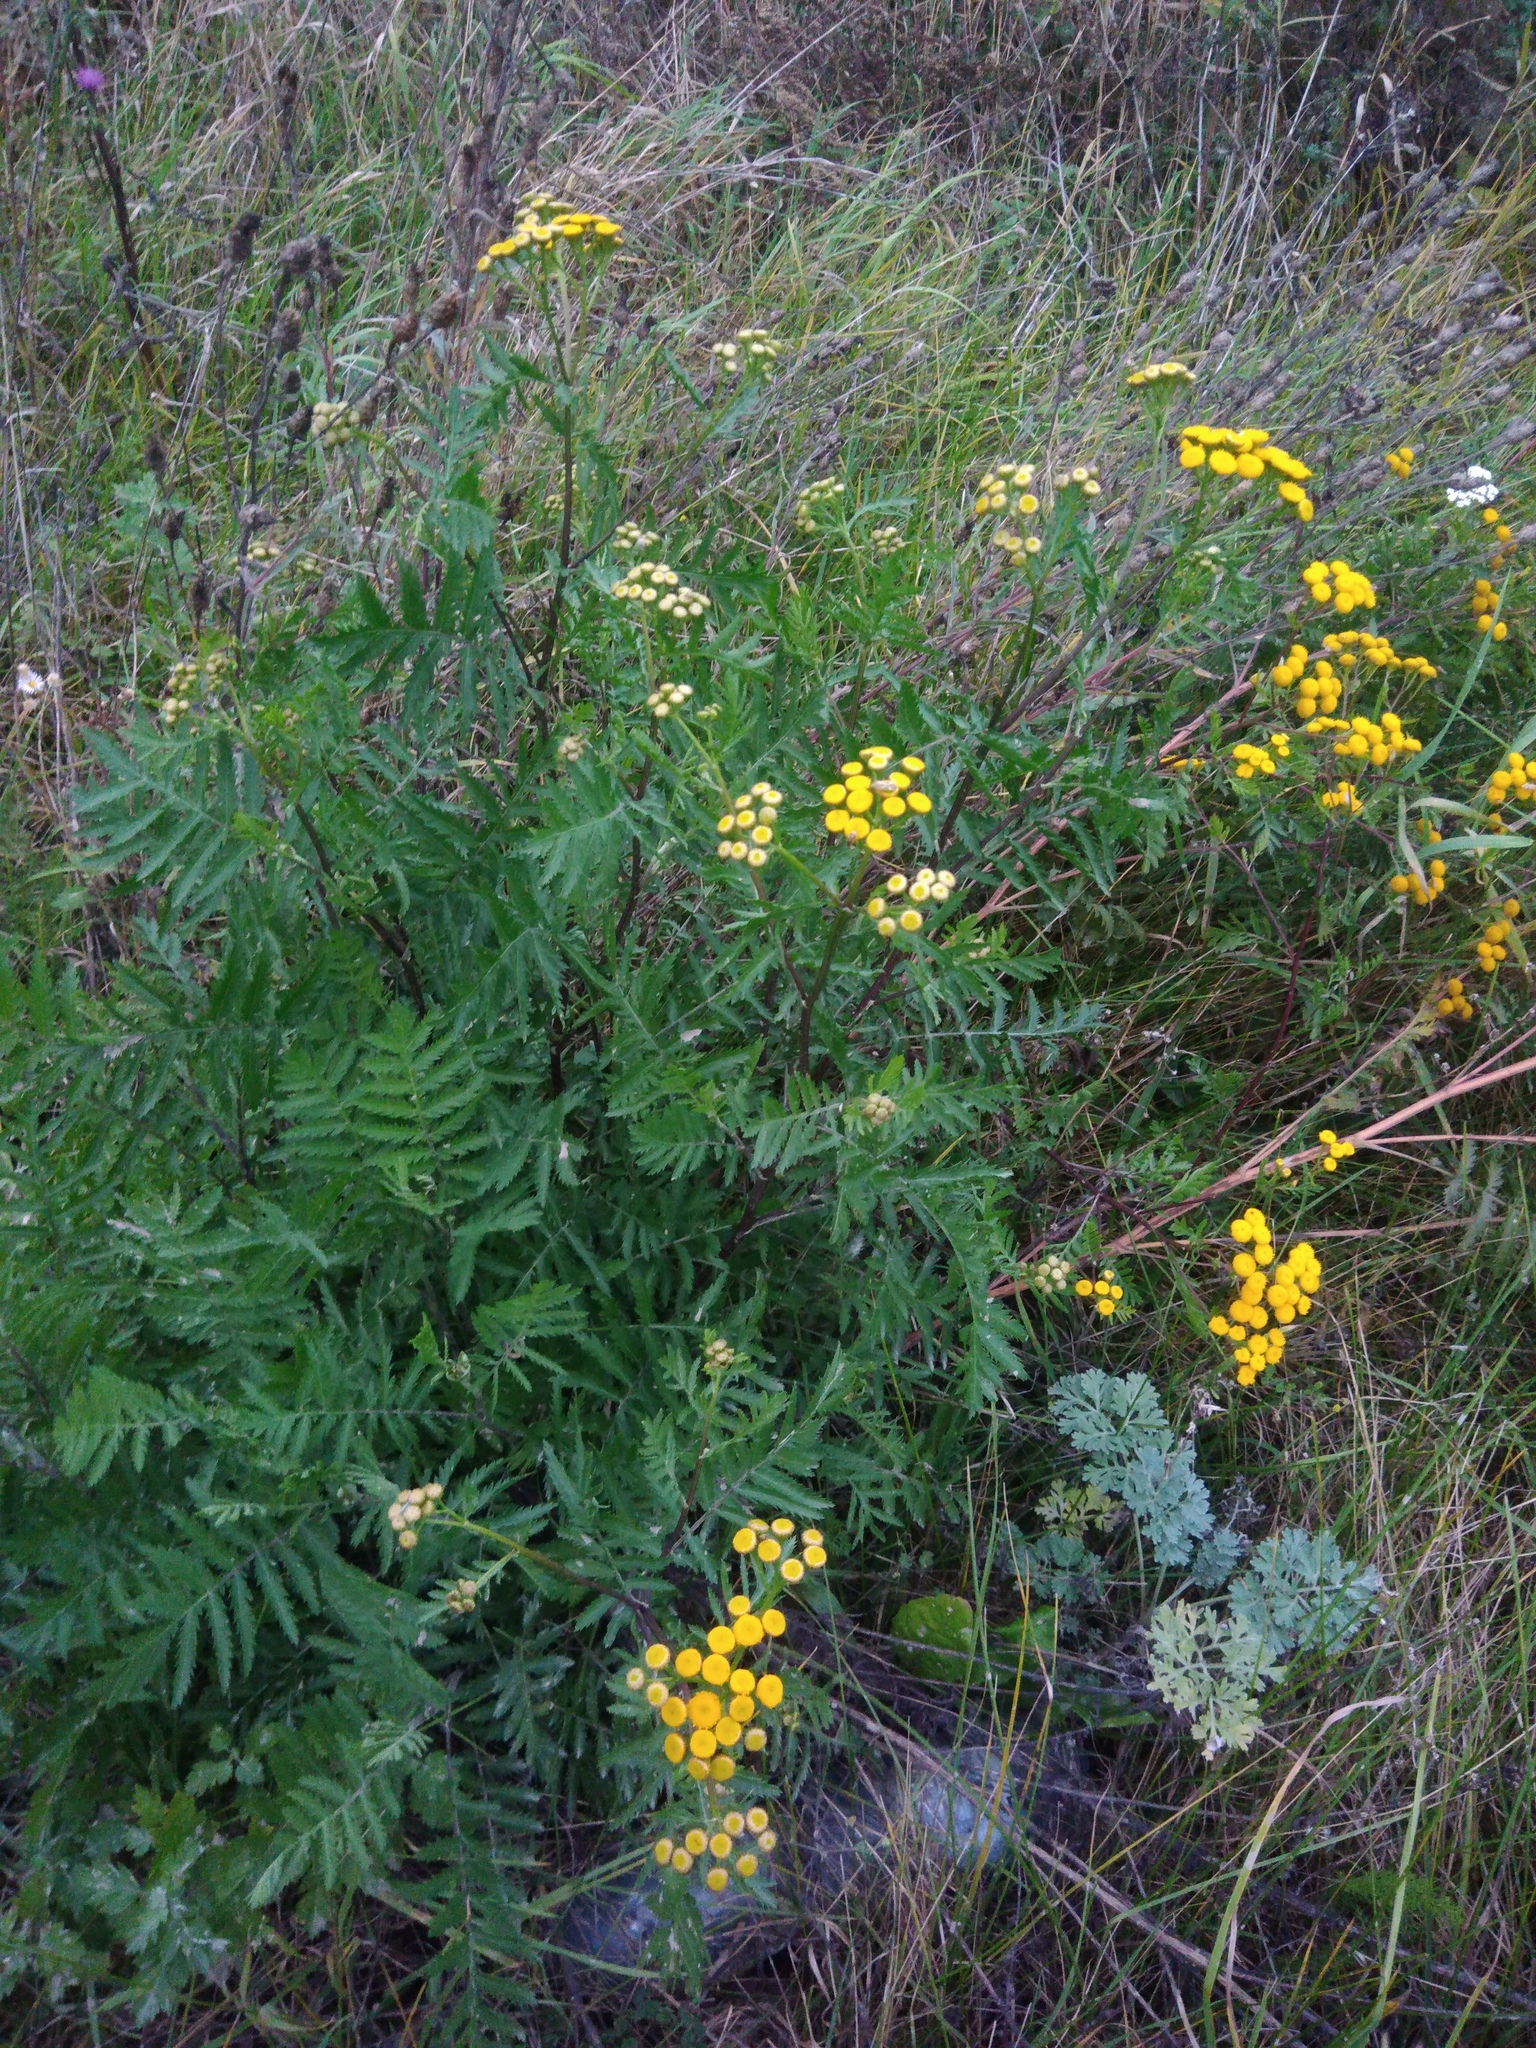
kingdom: Plantae
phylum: Tracheophyta
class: Magnoliopsida
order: Asterales
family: Asteraceae
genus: Tanacetum
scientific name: Tanacetum vulgare
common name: Common tansy
